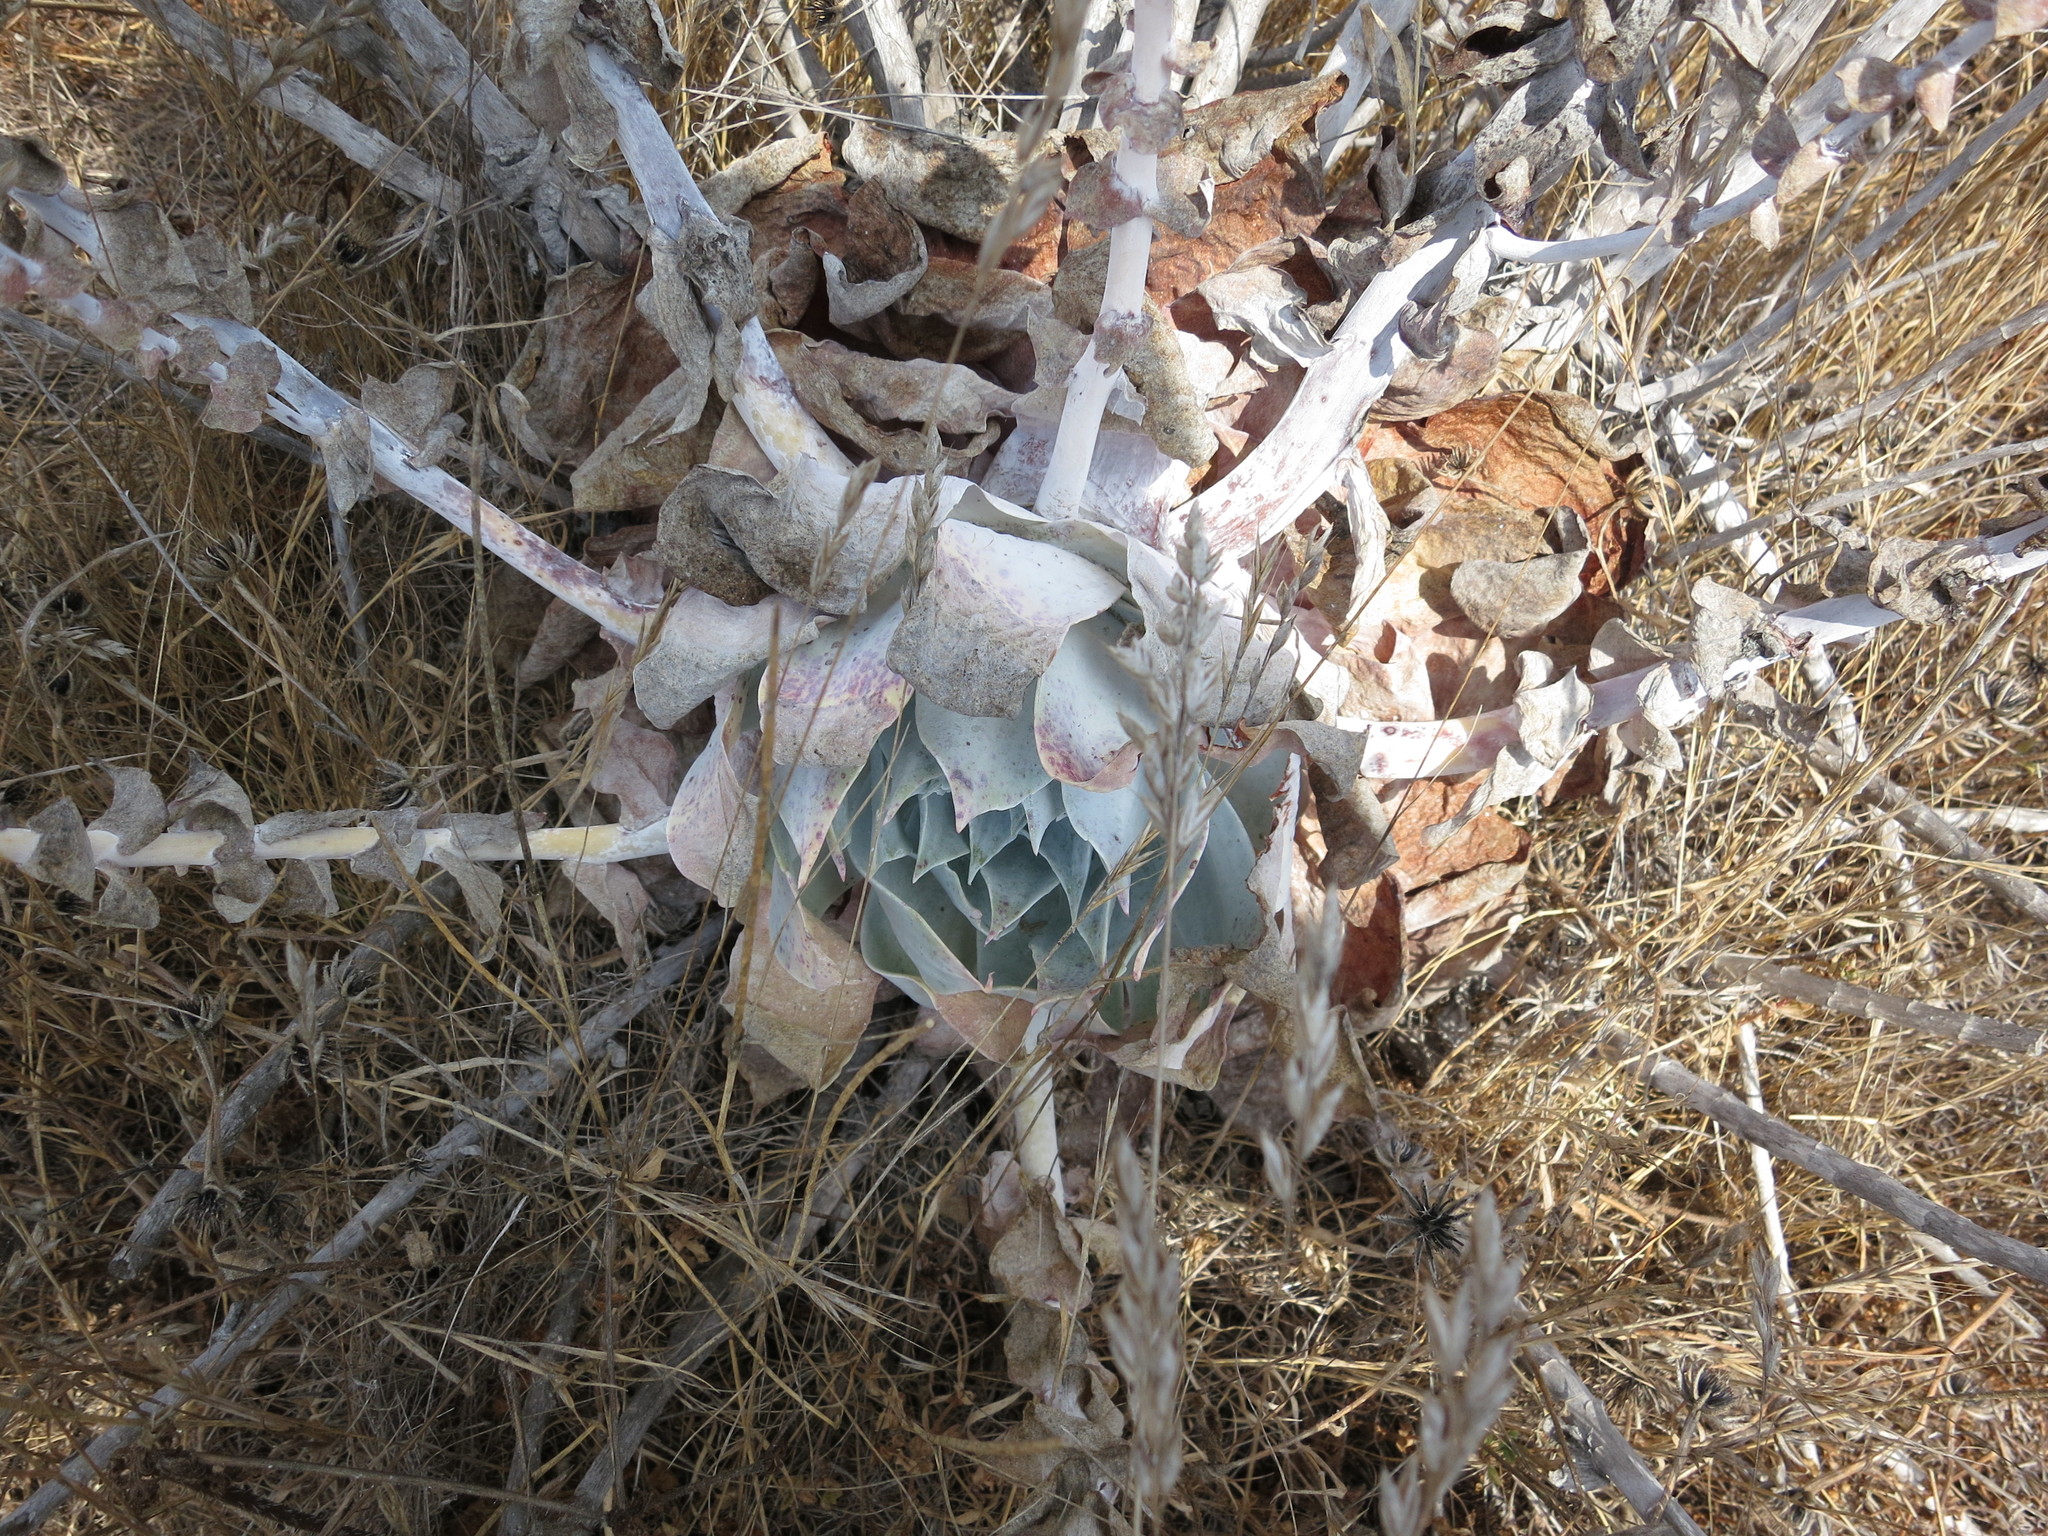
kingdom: Plantae
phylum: Tracheophyta
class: Magnoliopsida
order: Saxifragales
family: Crassulaceae
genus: Dudleya
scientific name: Dudleya pulverulenta
